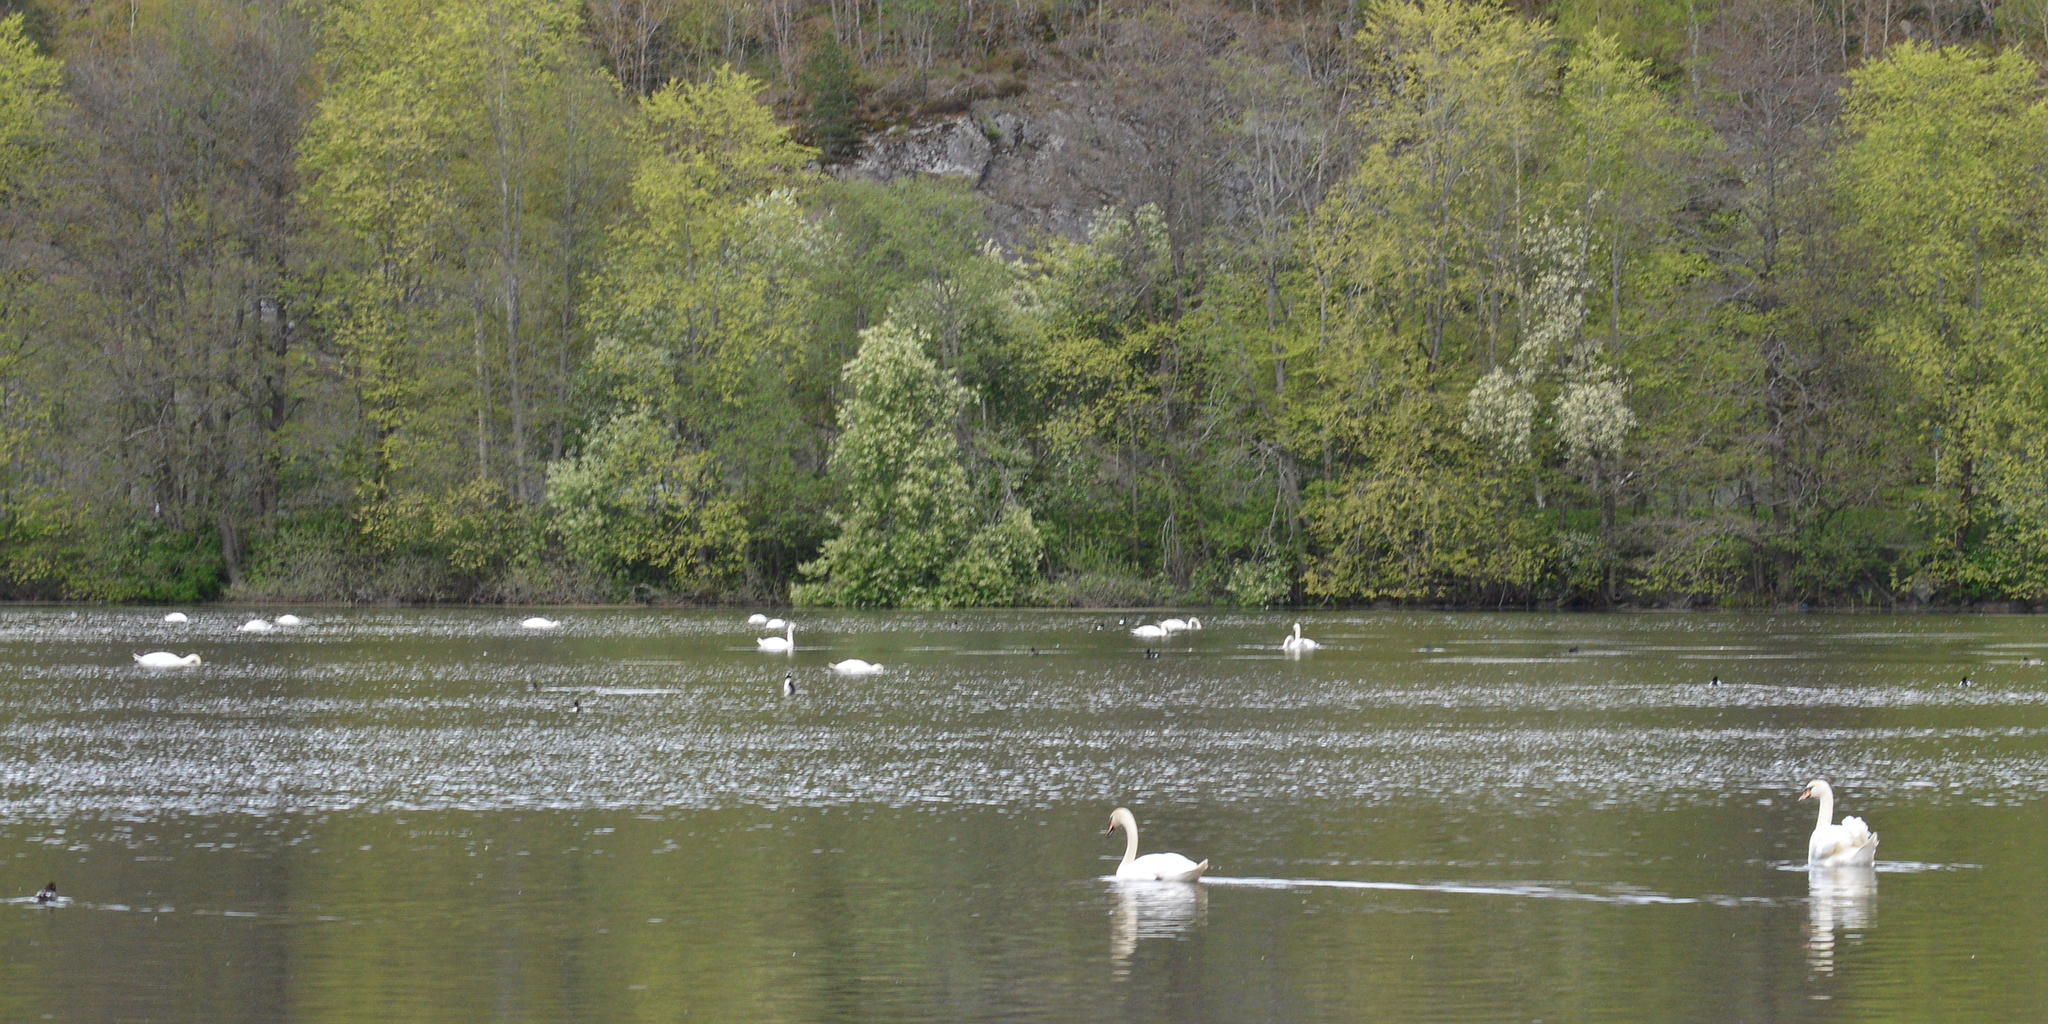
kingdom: Animalia
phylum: Chordata
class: Aves
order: Anseriformes
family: Anatidae
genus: Cygnus
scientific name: Cygnus olor
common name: Mute swan
